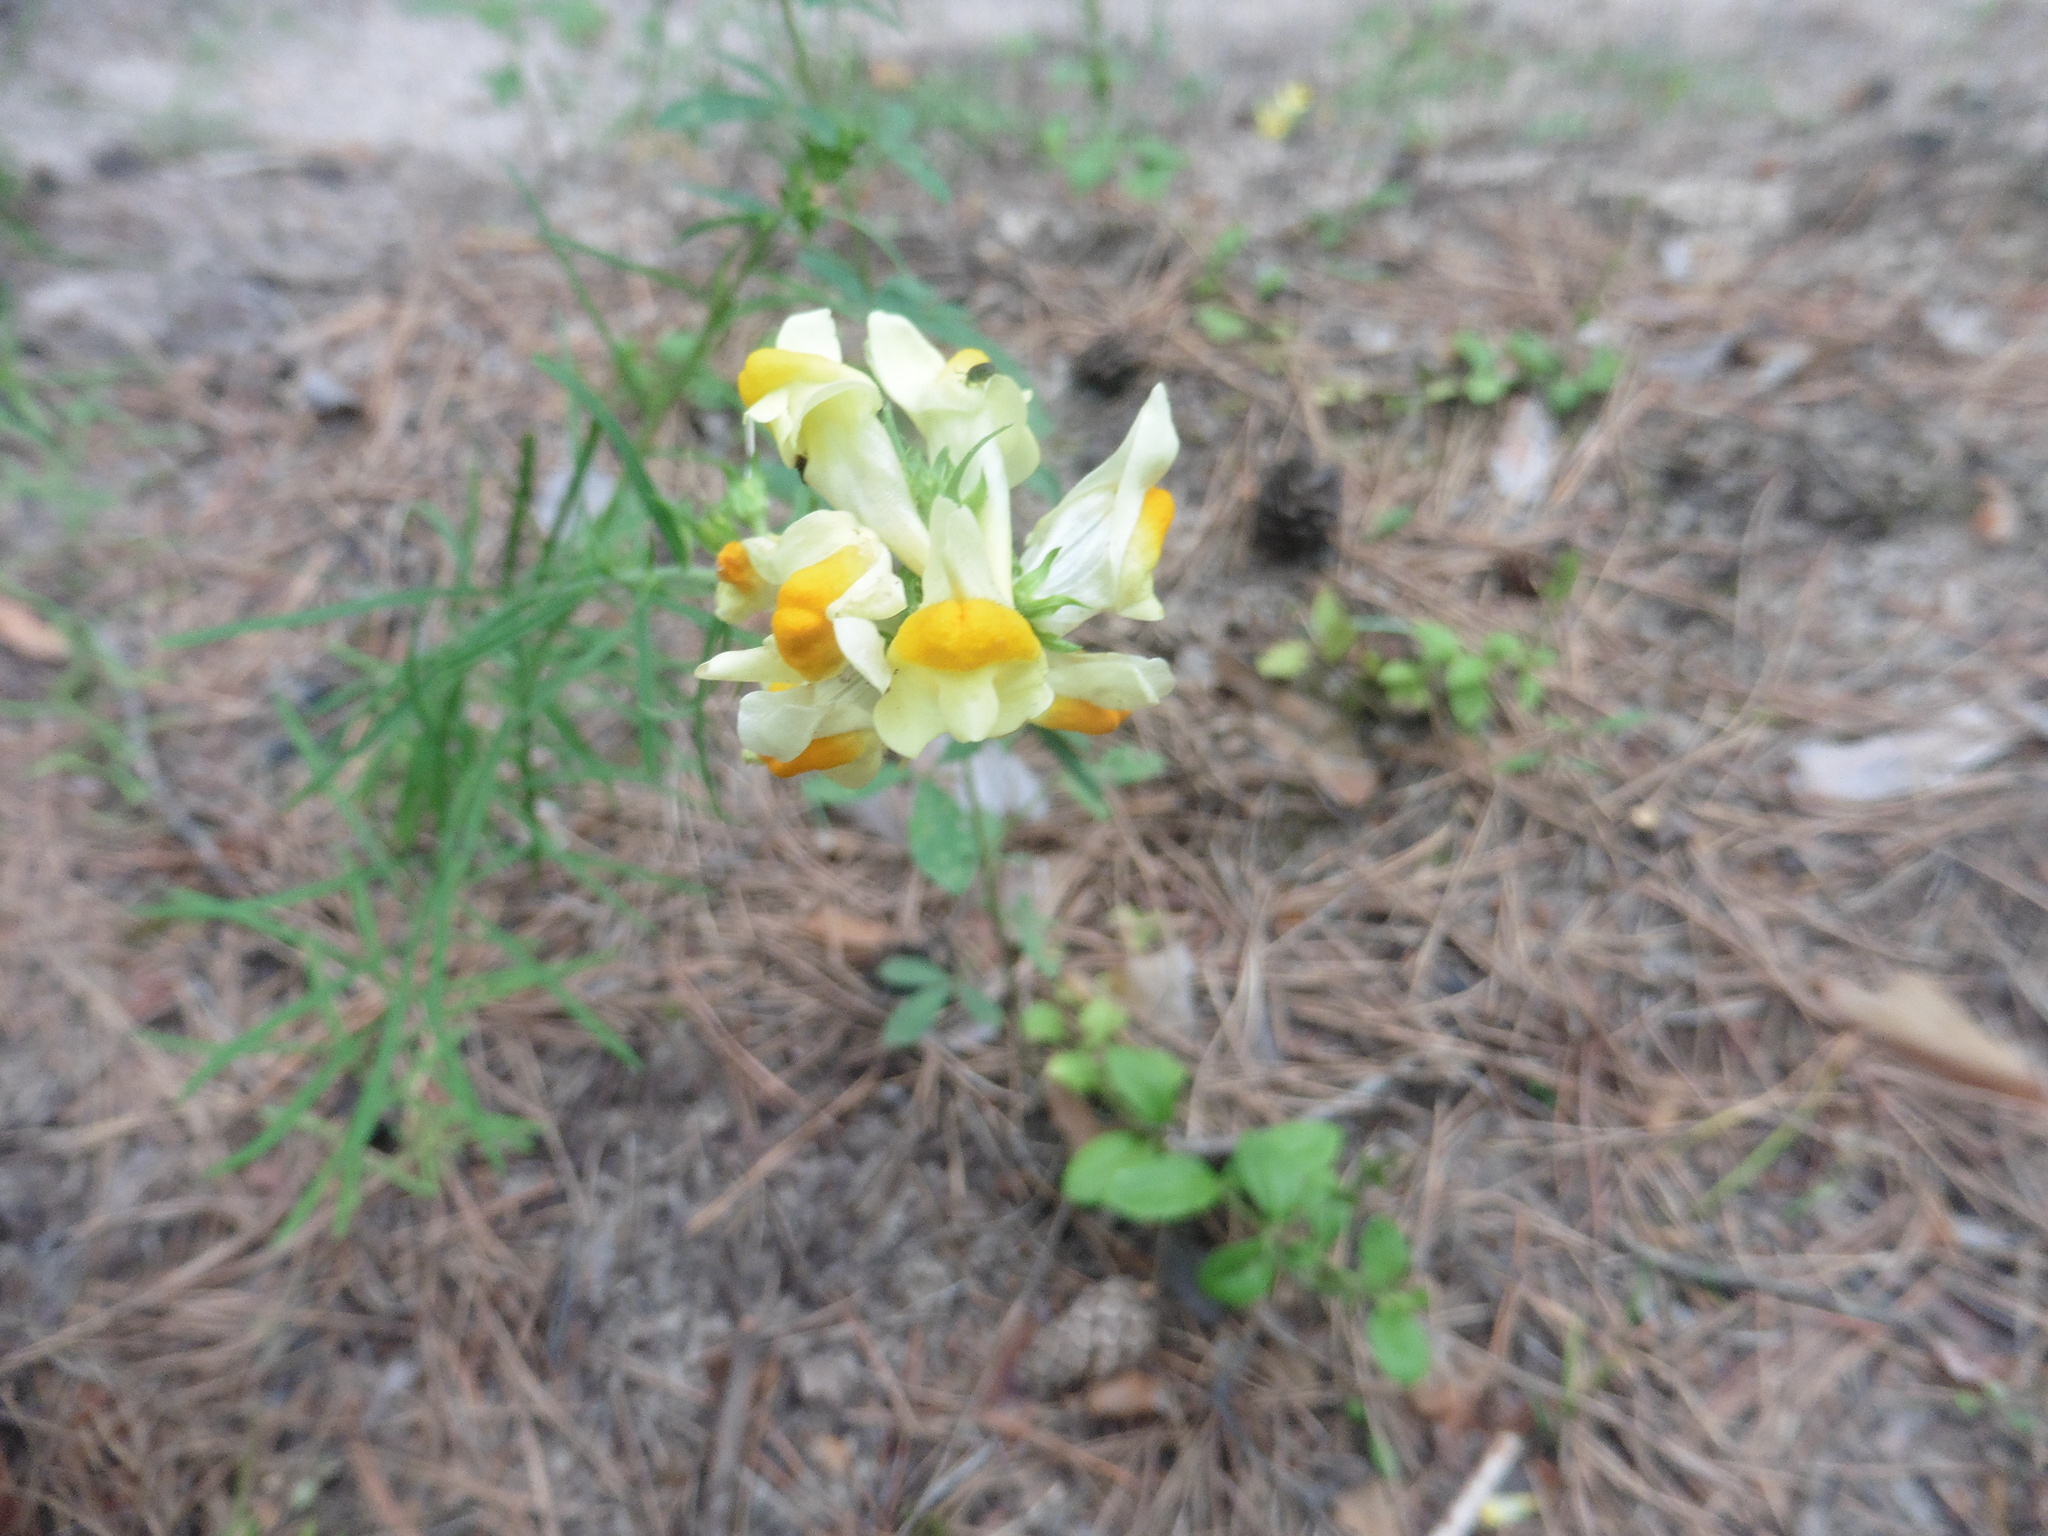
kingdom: Plantae
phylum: Tracheophyta
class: Magnoliopsida
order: Lamiales
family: Plantaginaceae
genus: Linaria
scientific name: Linaria vulgaris
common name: Butter and eggs
